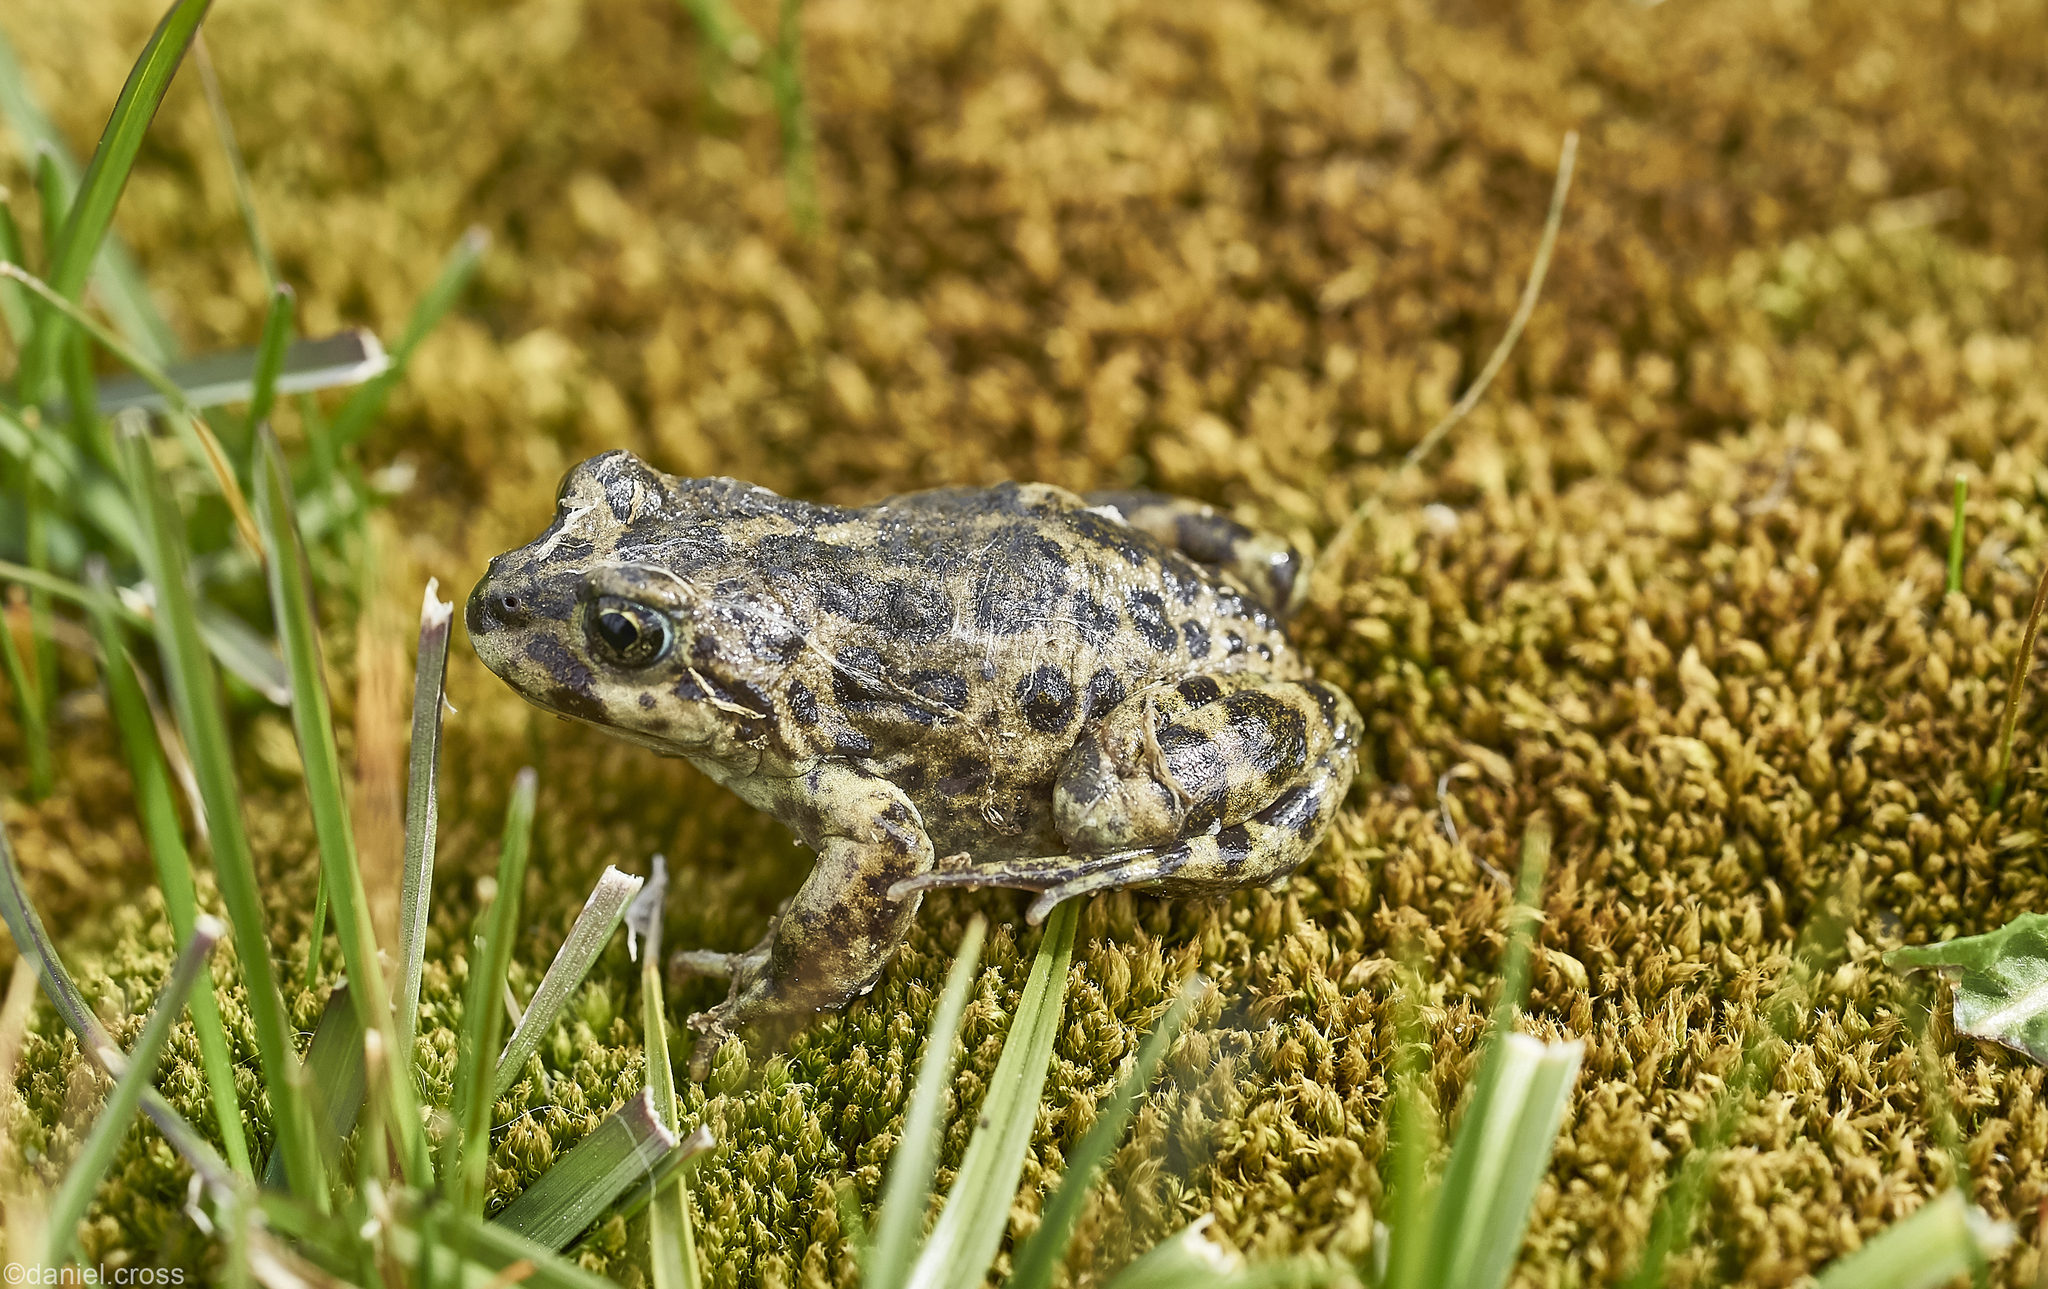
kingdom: Animalia
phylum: Chordata
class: Amphibia
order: Anura
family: Batrachylidae
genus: Atelognathus
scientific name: Atelognathus nitoi
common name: Rio negro frog
